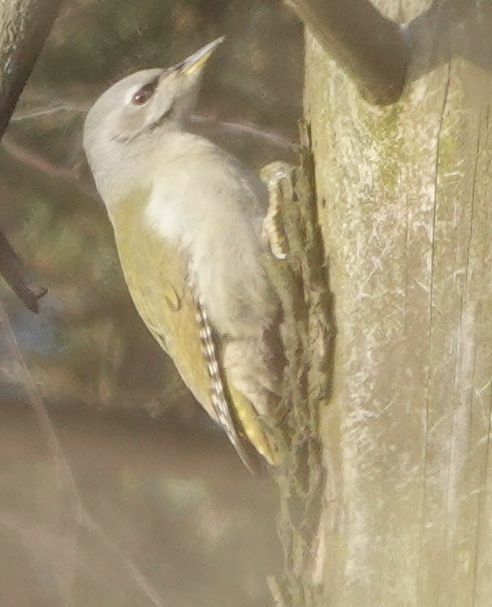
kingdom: Animalia
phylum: Chordata
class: Aves
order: Piciformes
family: Picidae
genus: Picus
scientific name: Picus canus
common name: Grey-headed woodpecker
